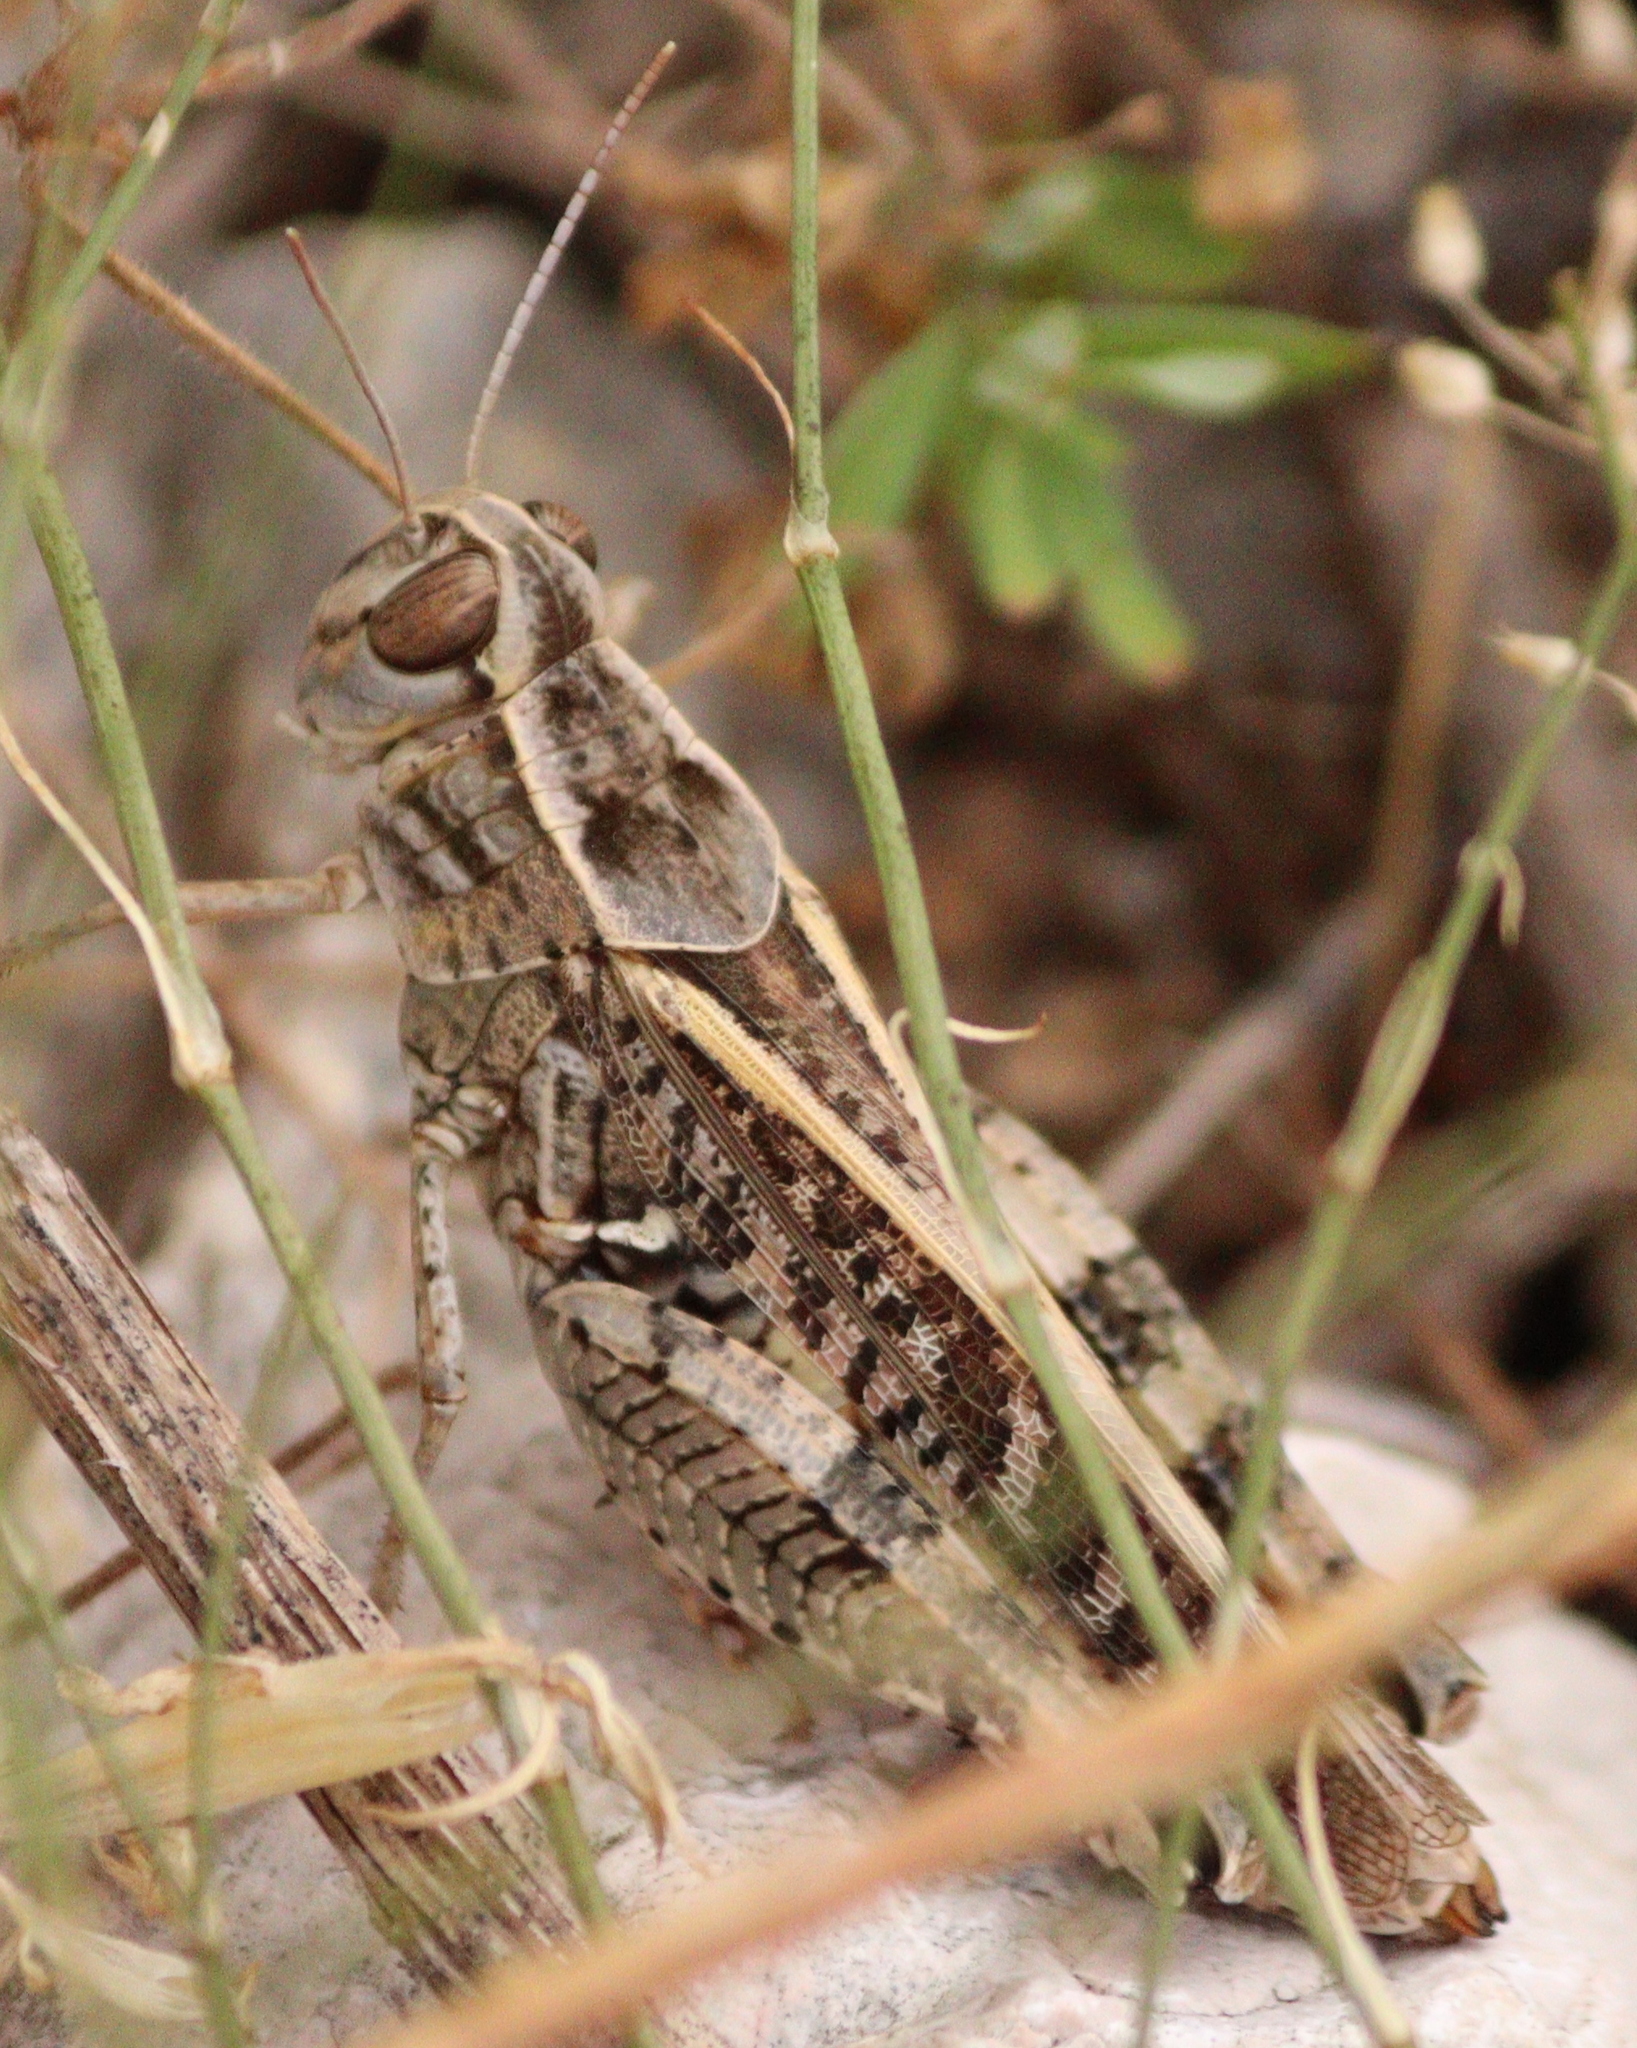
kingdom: Animalia
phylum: Arthropoda
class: Insecta
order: Orthoptera
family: Acrididae
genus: Calliptamus
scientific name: Calliptamus italicus
